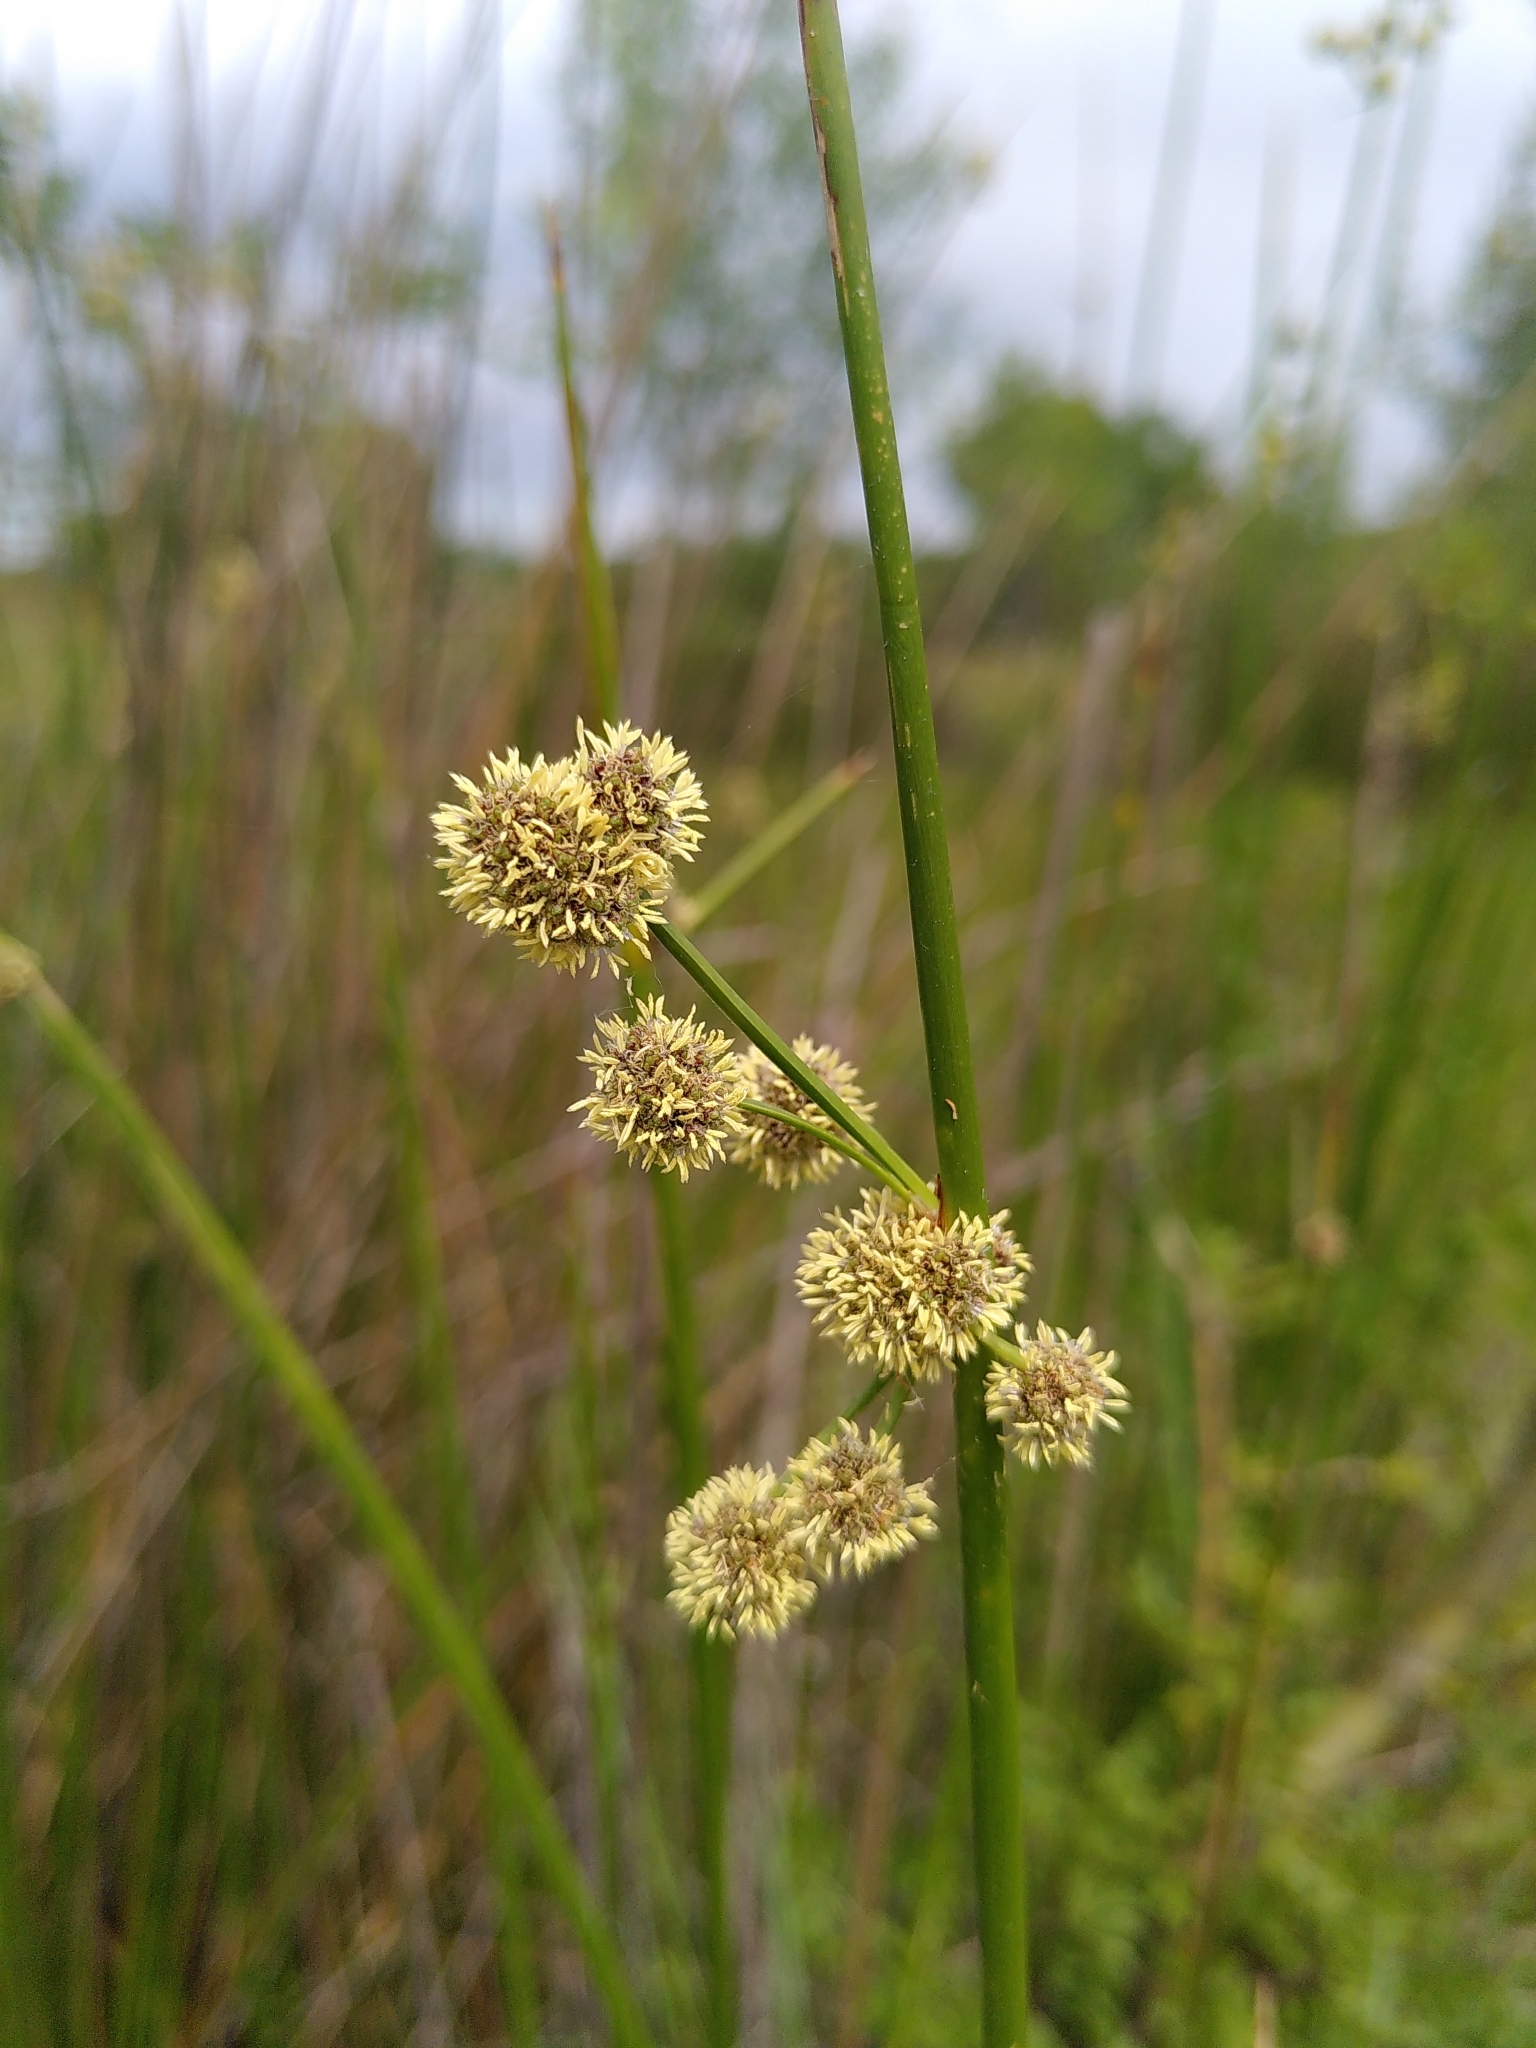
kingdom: Plantae
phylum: Tracheophyta
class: Liliopsida
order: Poales
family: Cyperaceae
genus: Scirpoides
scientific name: Scirpoides holoschoenus
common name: Round-headed club-rush
